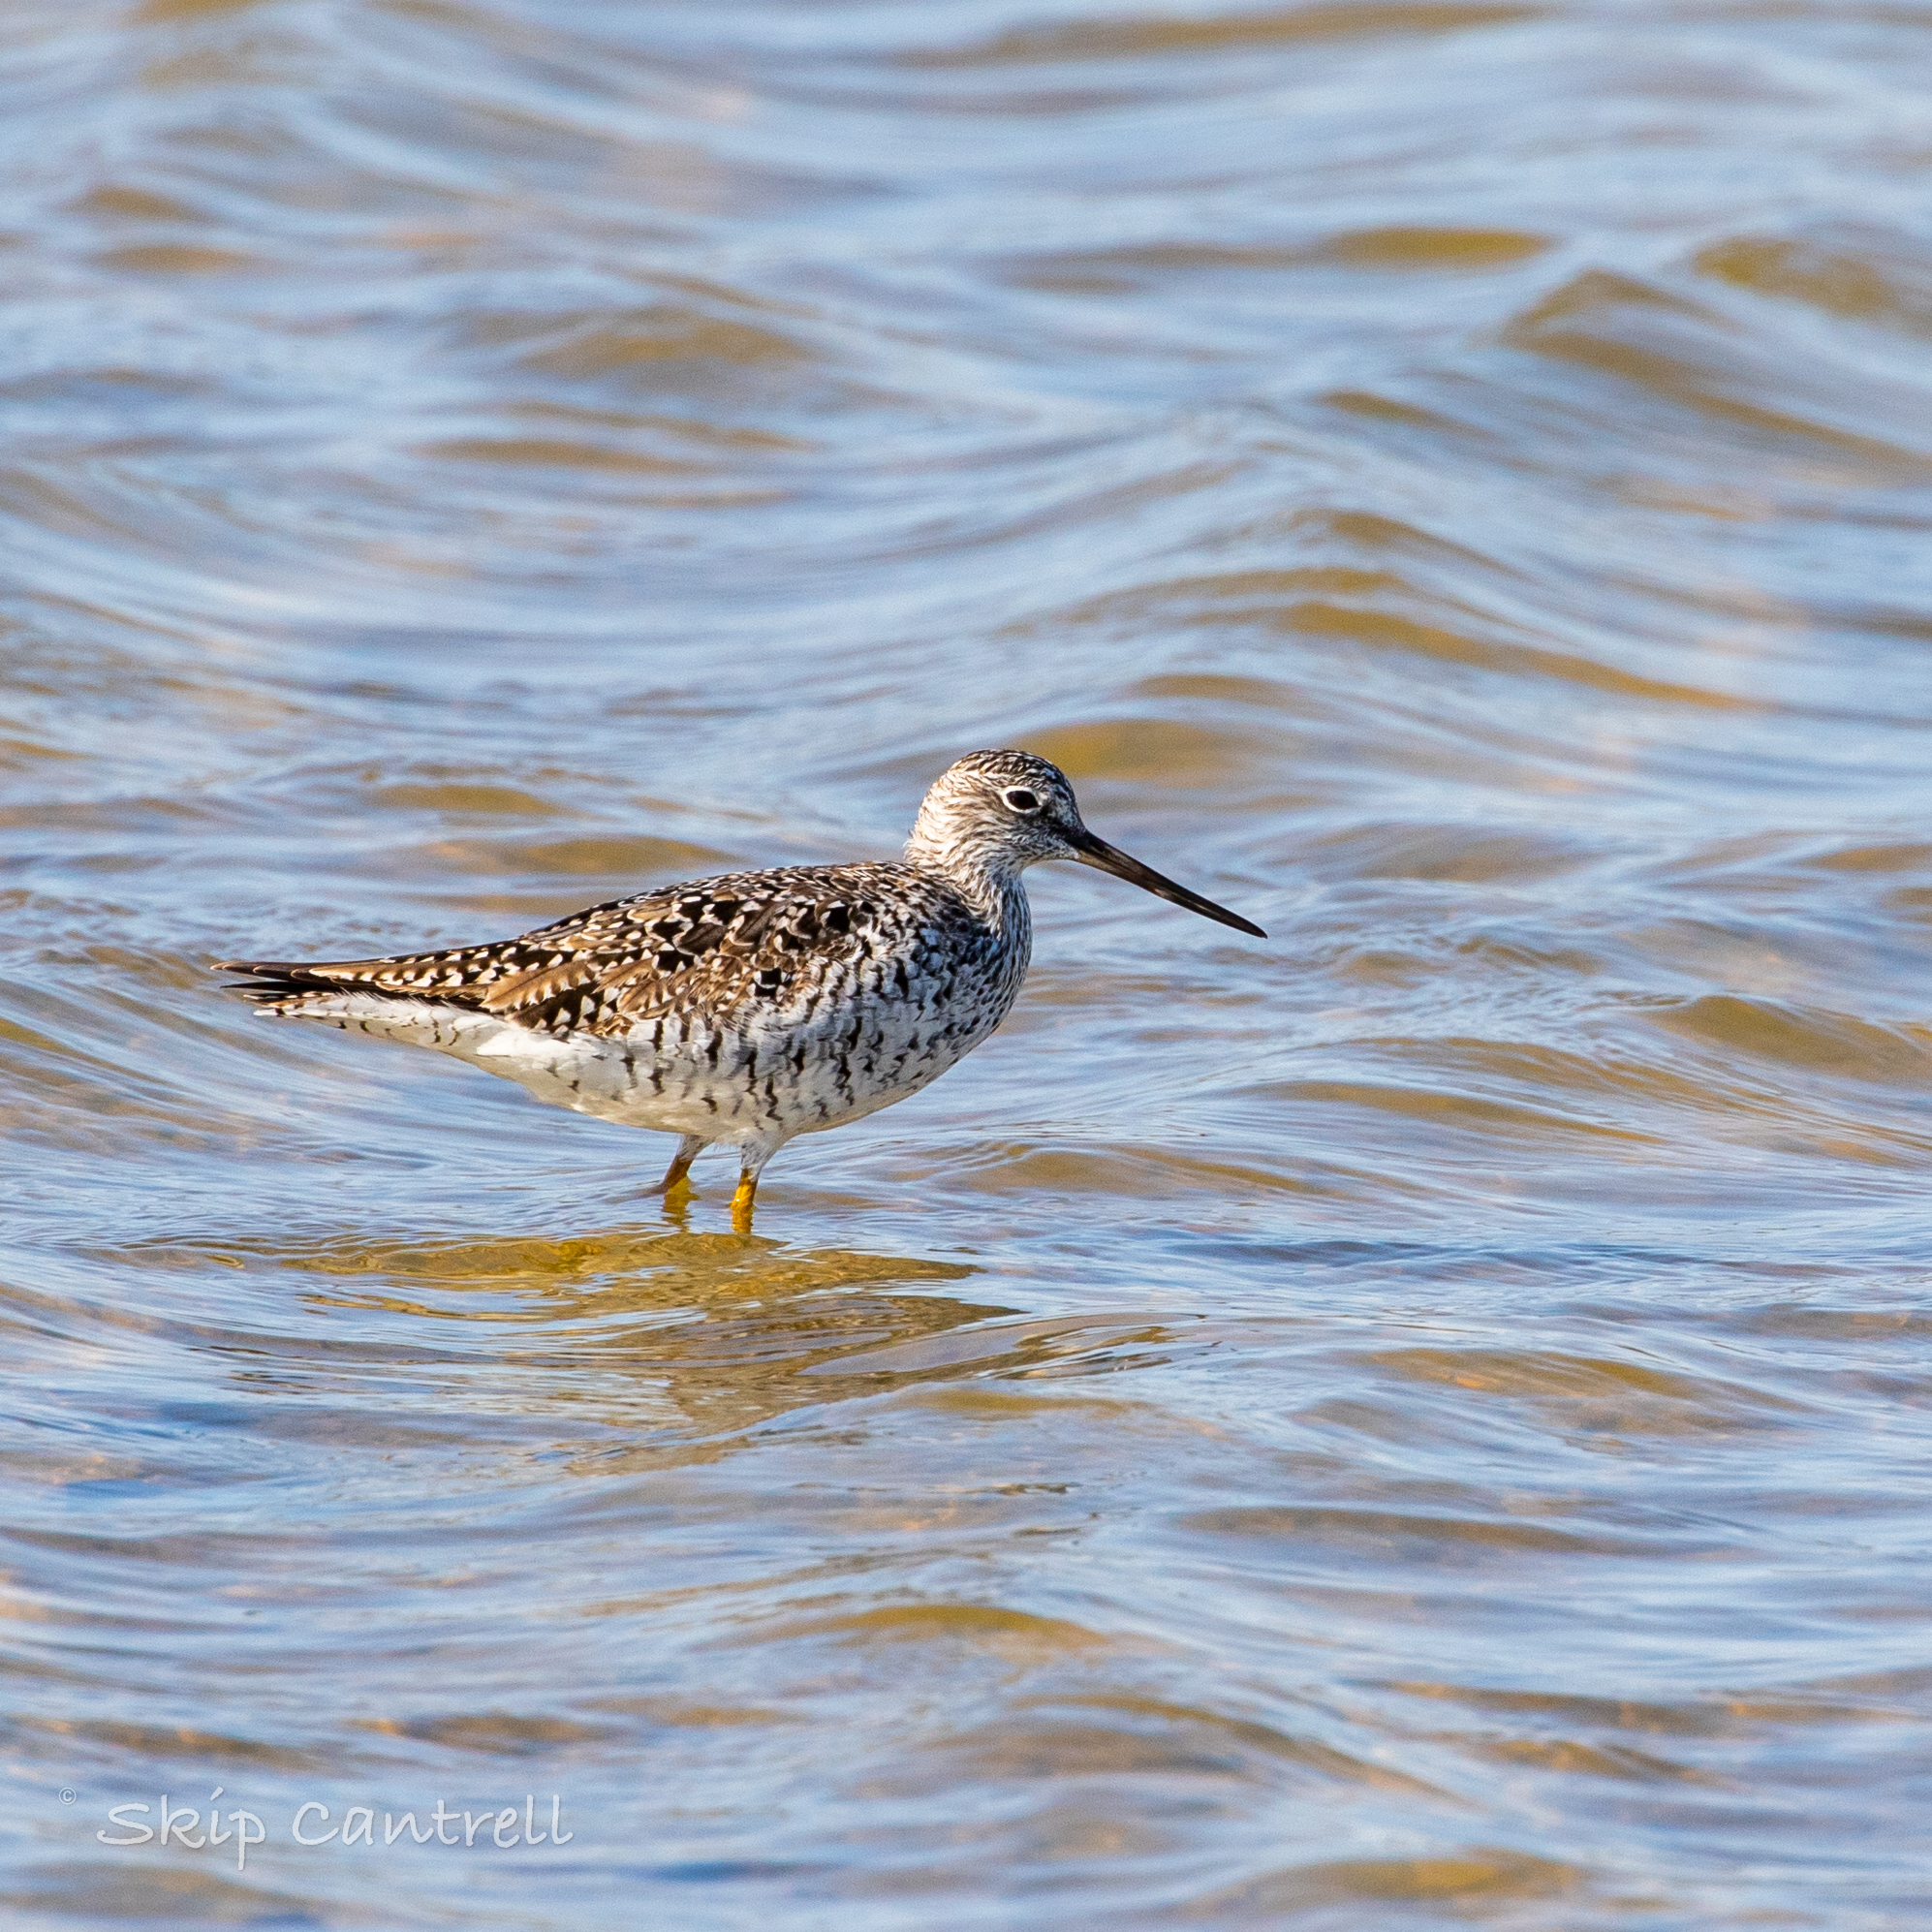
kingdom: Animalia
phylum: Chordata
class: Aves
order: Charadriiformes
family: Scolopacidae
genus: Tringa
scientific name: Tringa melanoleuca
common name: Greater yellowlegs
